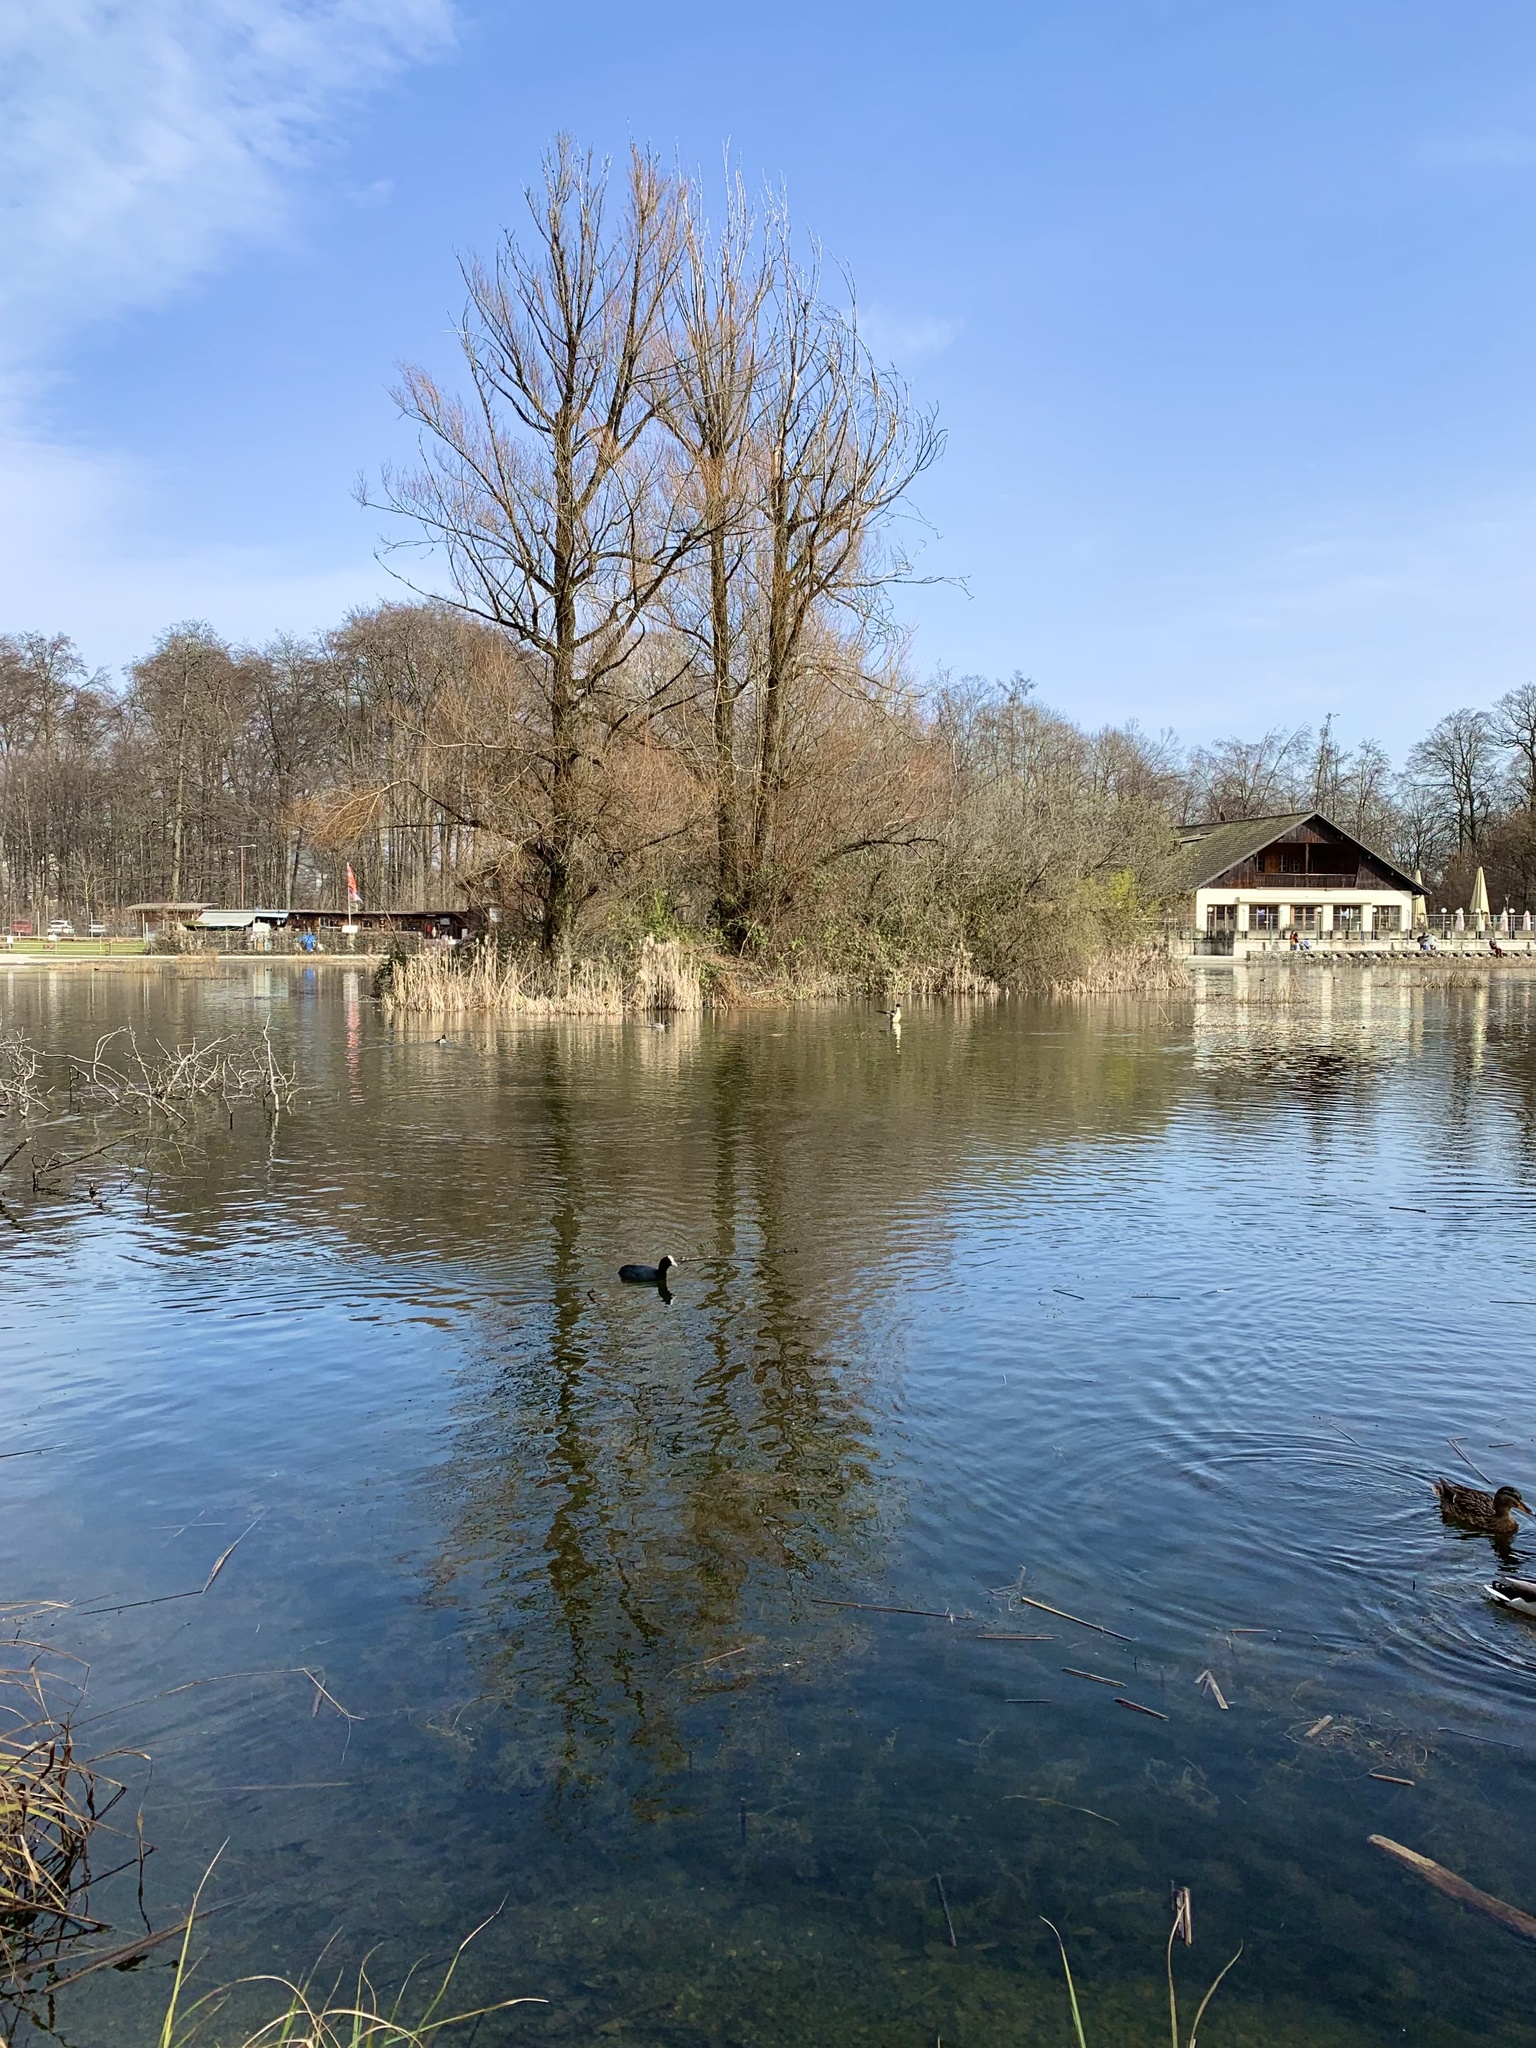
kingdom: Animalia
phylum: Chordata
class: Aves
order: Gruiformes
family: Rallidae
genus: Fulica
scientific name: Fulica atra
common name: Eurasian coot
